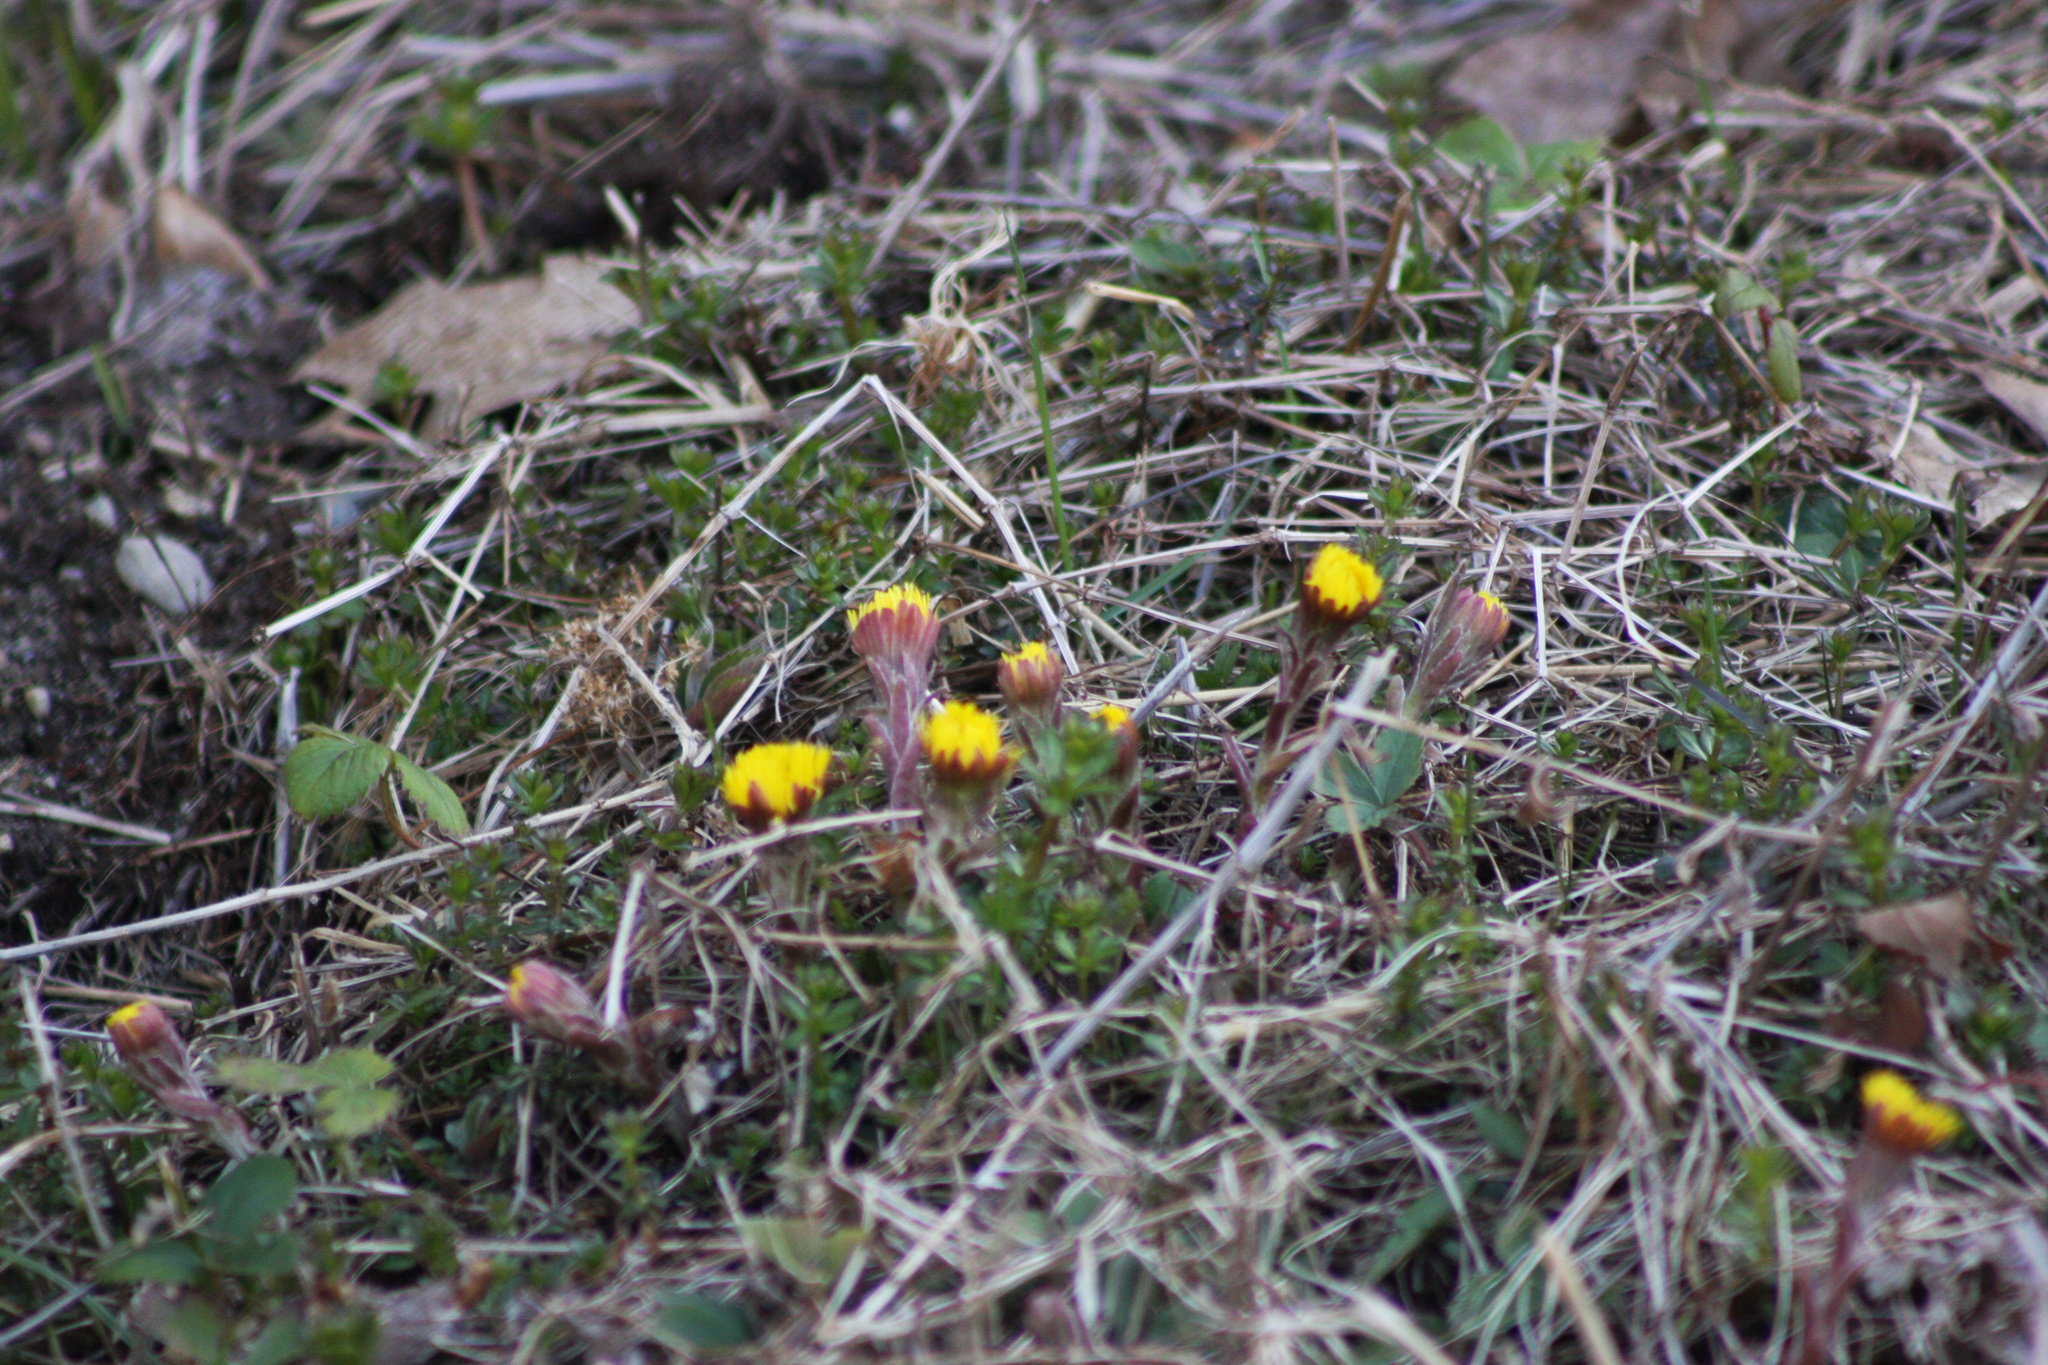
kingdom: Plantae
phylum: Tracheophyta
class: Magnoliopsida
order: Asterales
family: Asteraceae
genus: Tussilago
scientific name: Tussilago farfara
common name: Coltsfoot
